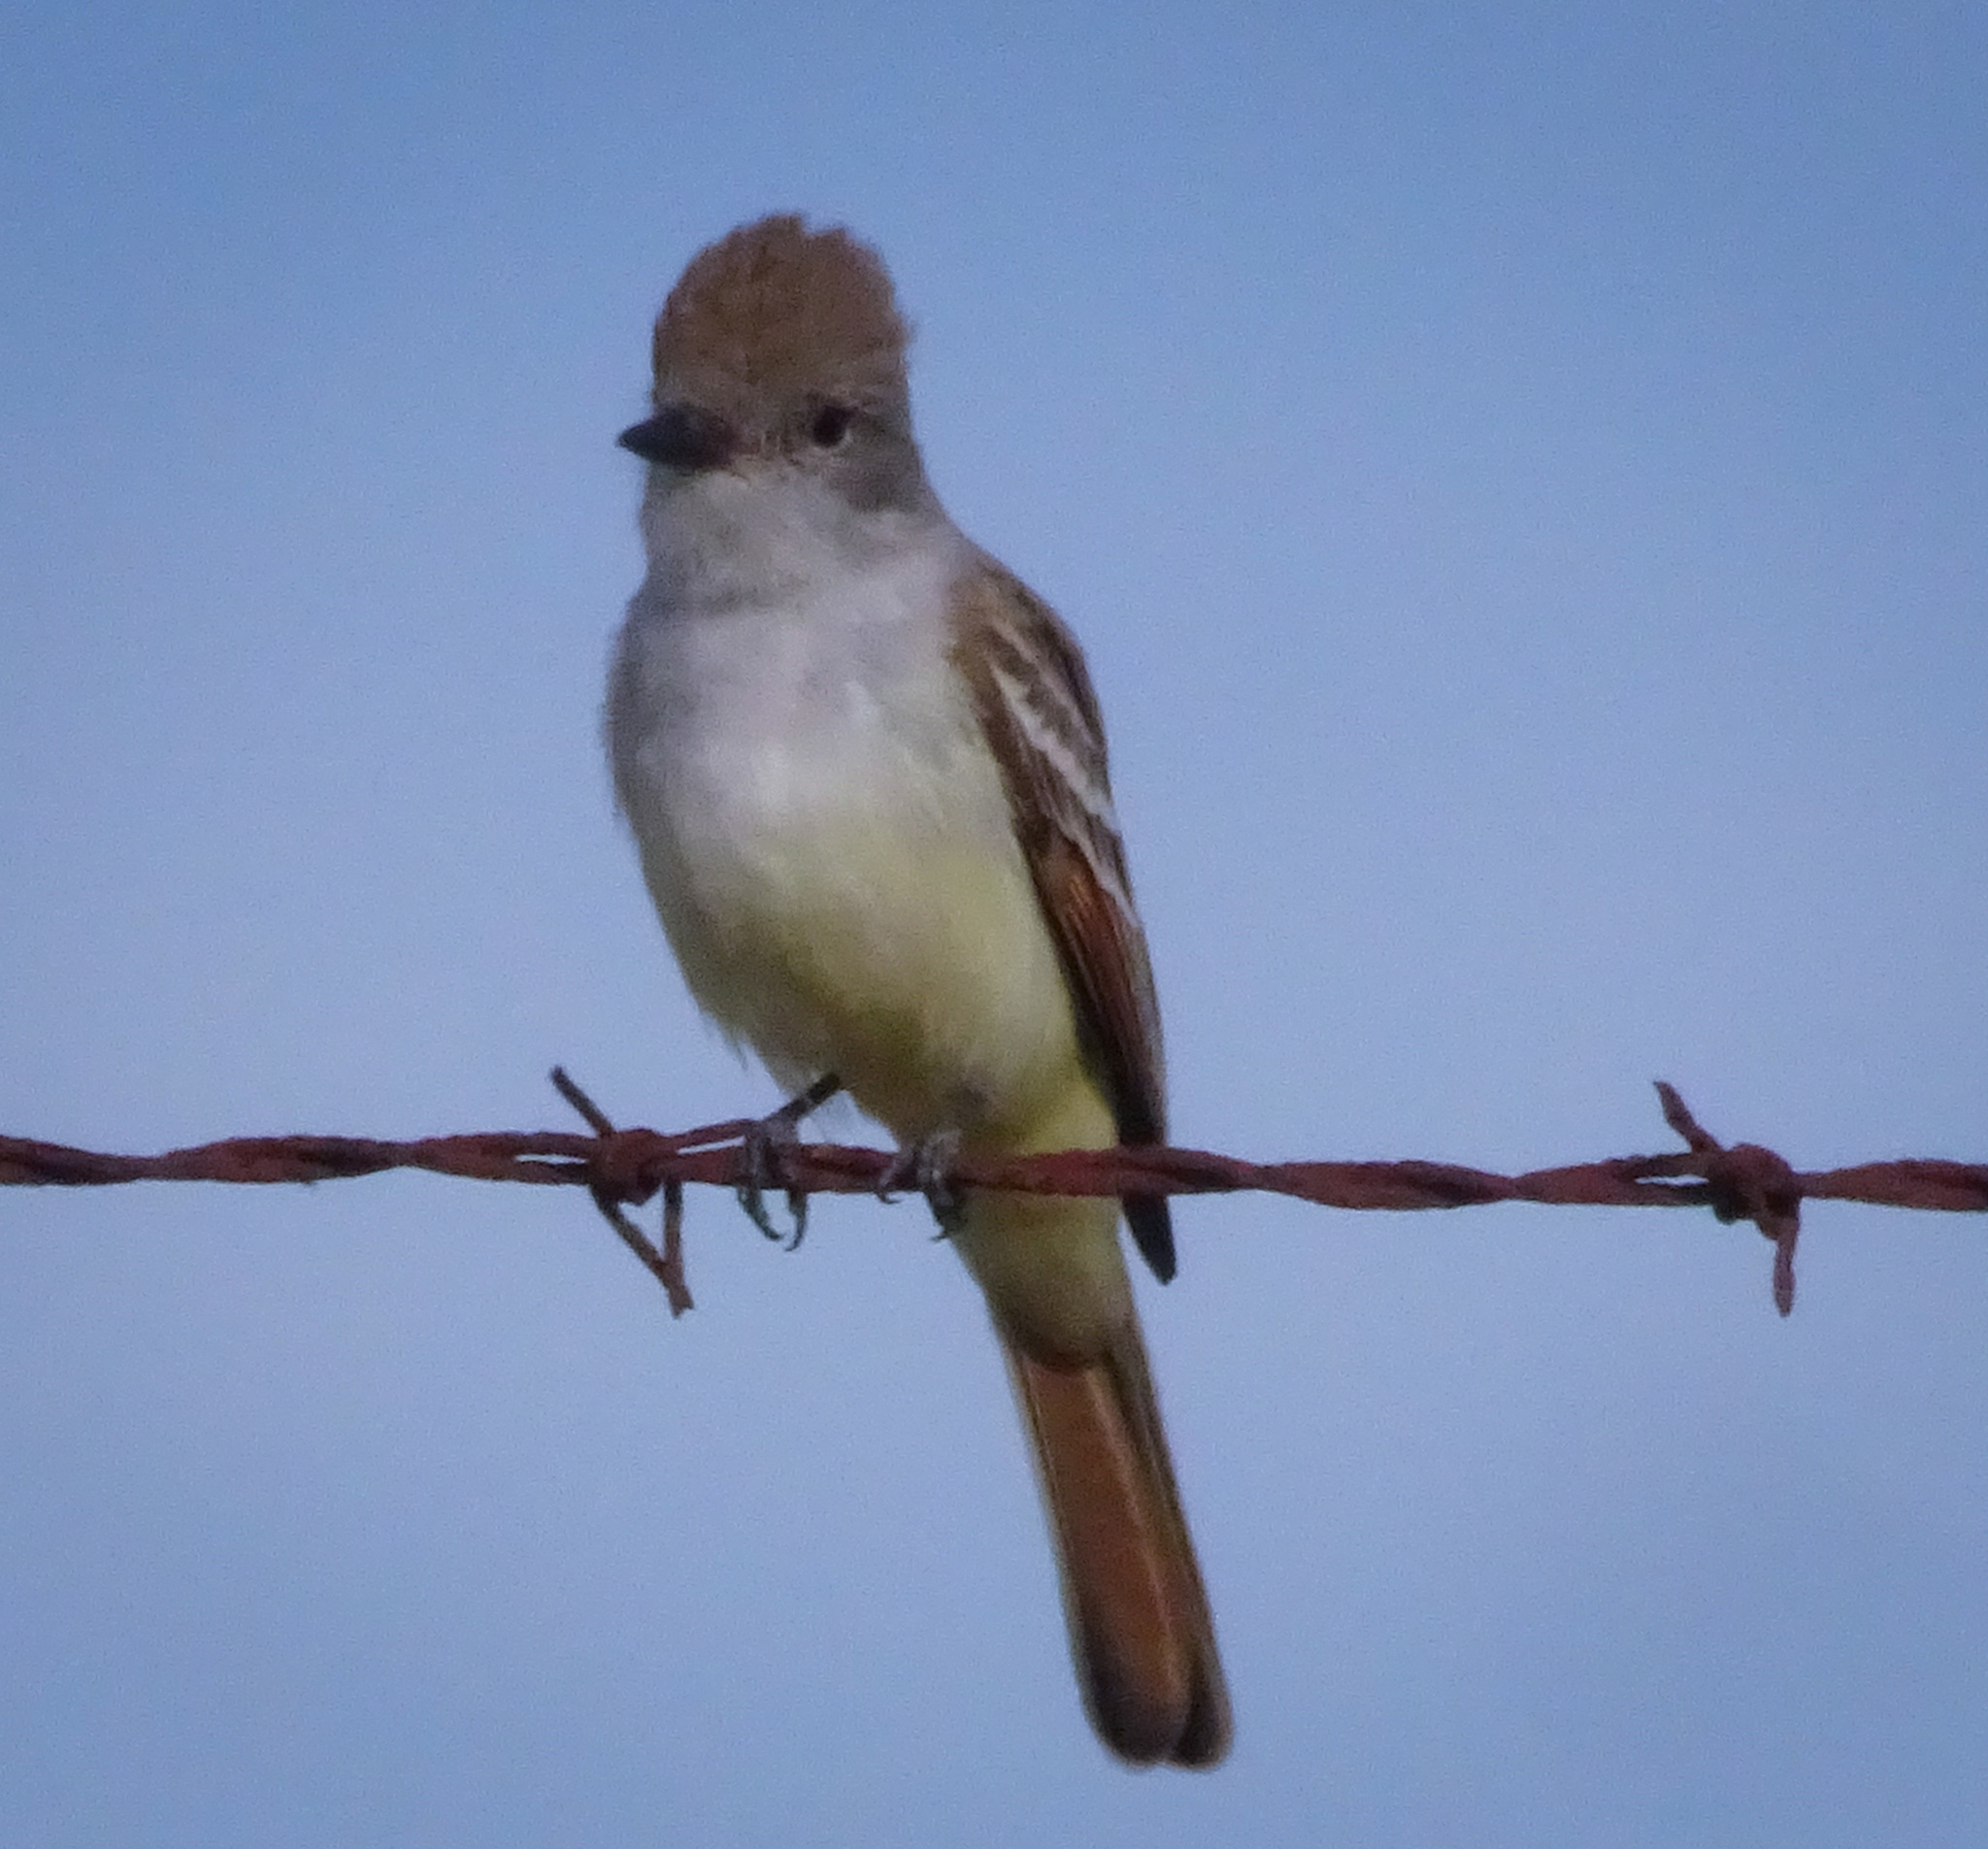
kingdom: Animalia
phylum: Chordata
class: Aves
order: Passeriformes
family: Tyrannidae
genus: Myiarchus
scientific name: Myiarchus cinerascens
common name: Ash-throated flycatcher
